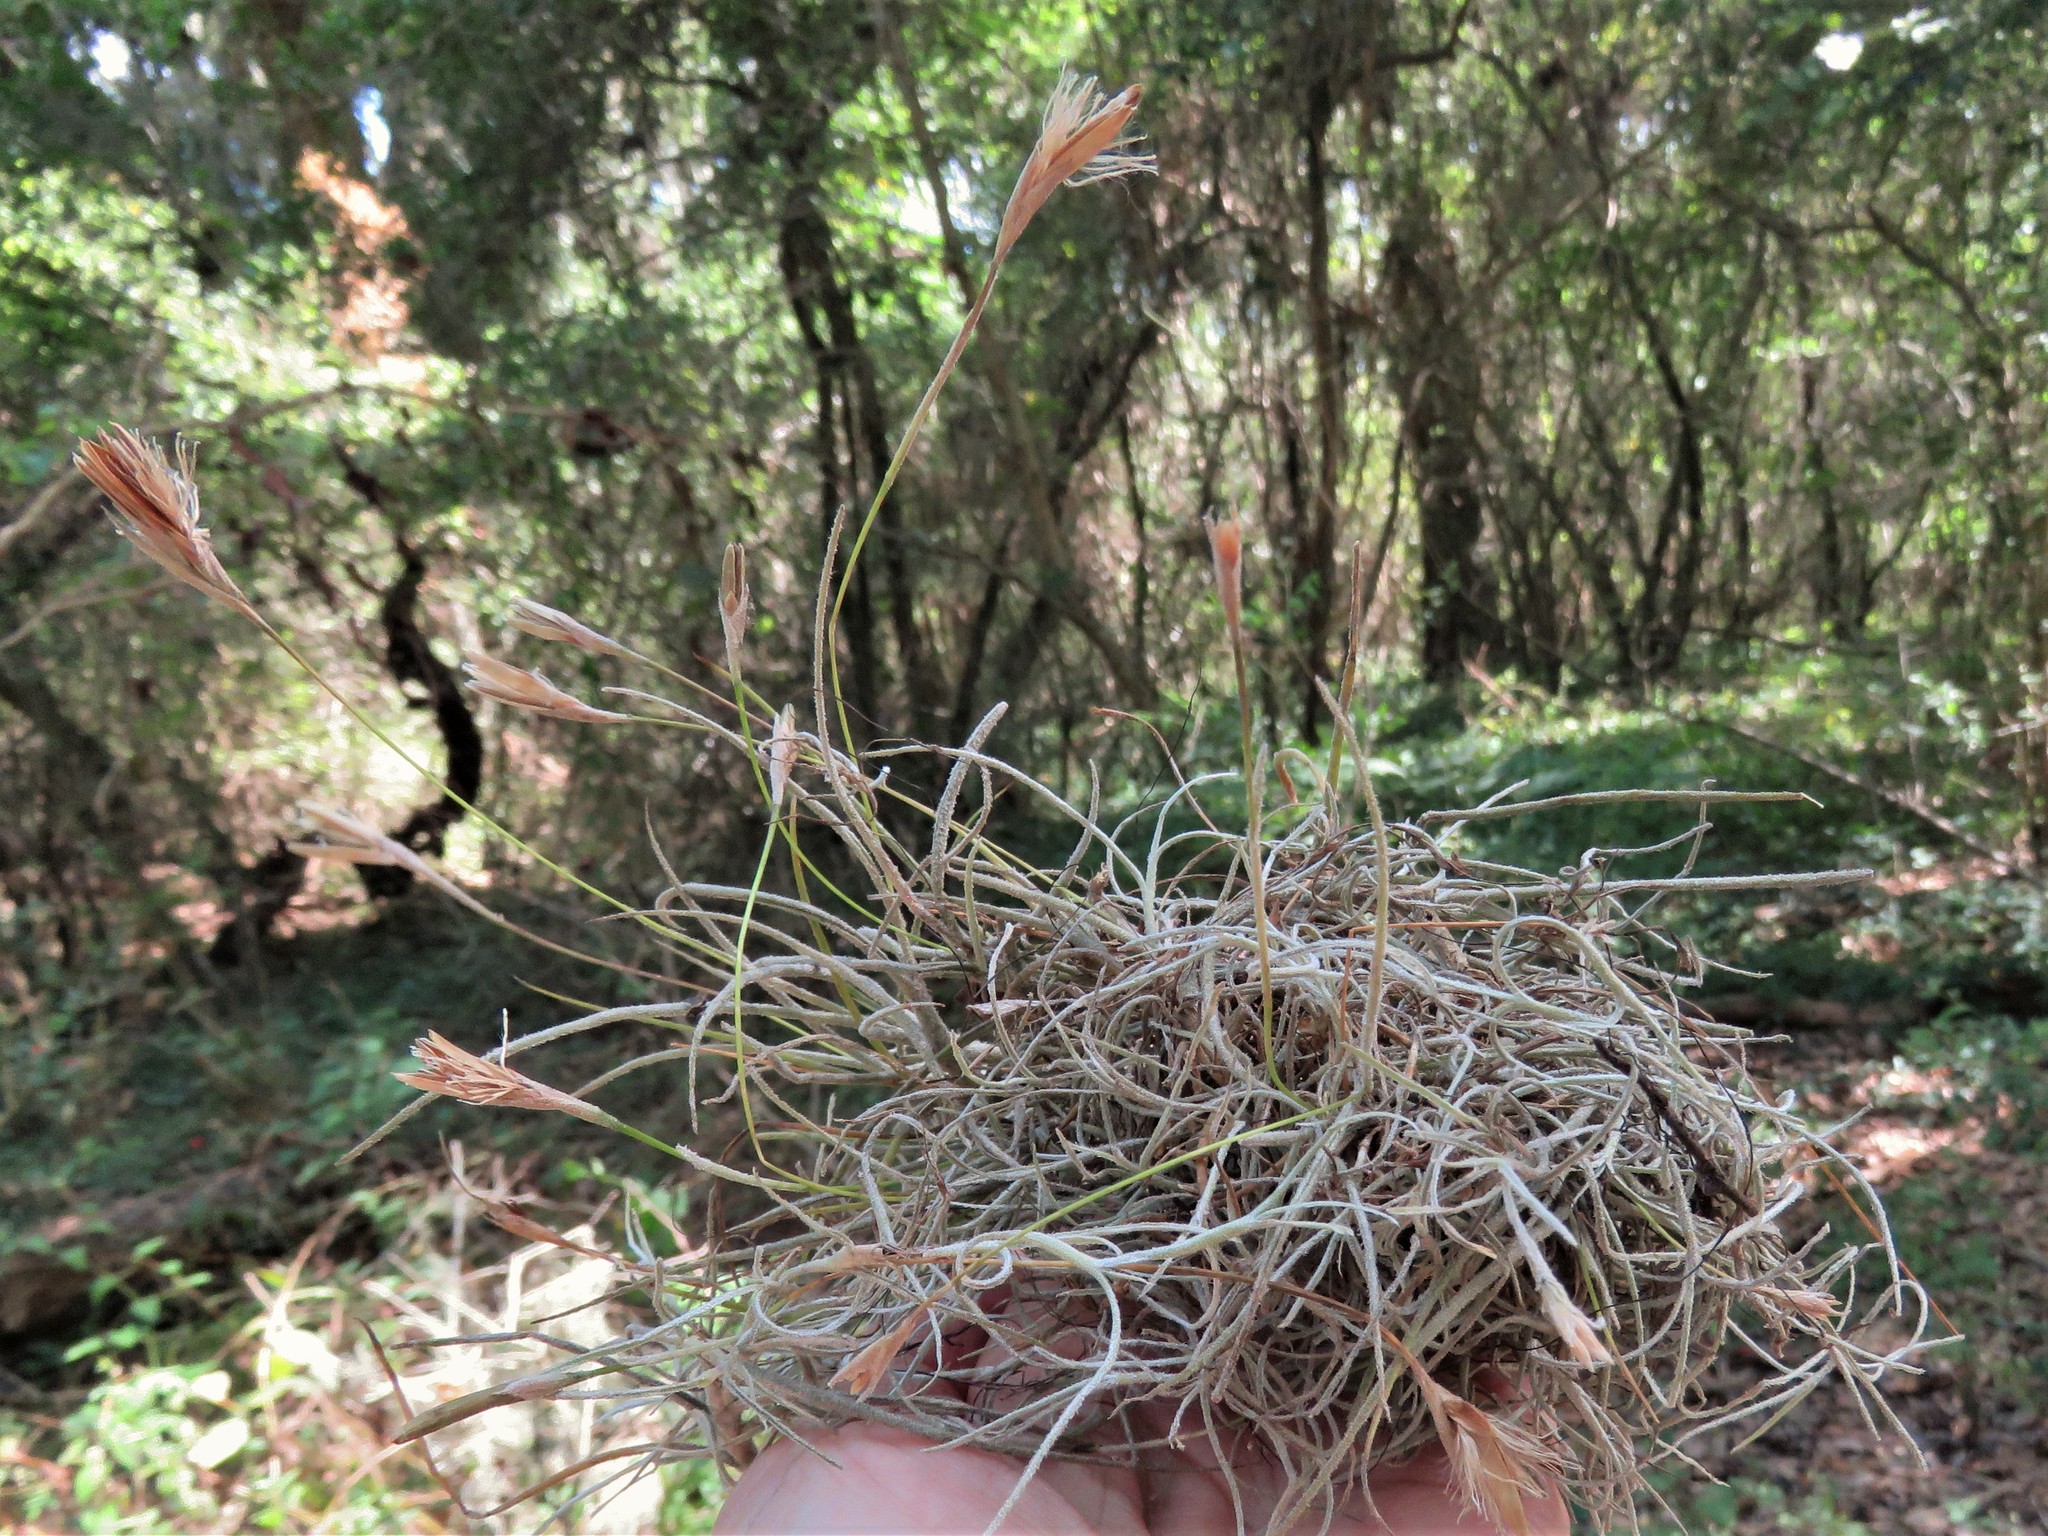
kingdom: Plantae
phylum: Tracheophyta
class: Liliopsida
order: Poales
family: Bromeliaceae
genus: Tillandsia
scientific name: Tillandsia recurvata
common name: Small ballmoss
